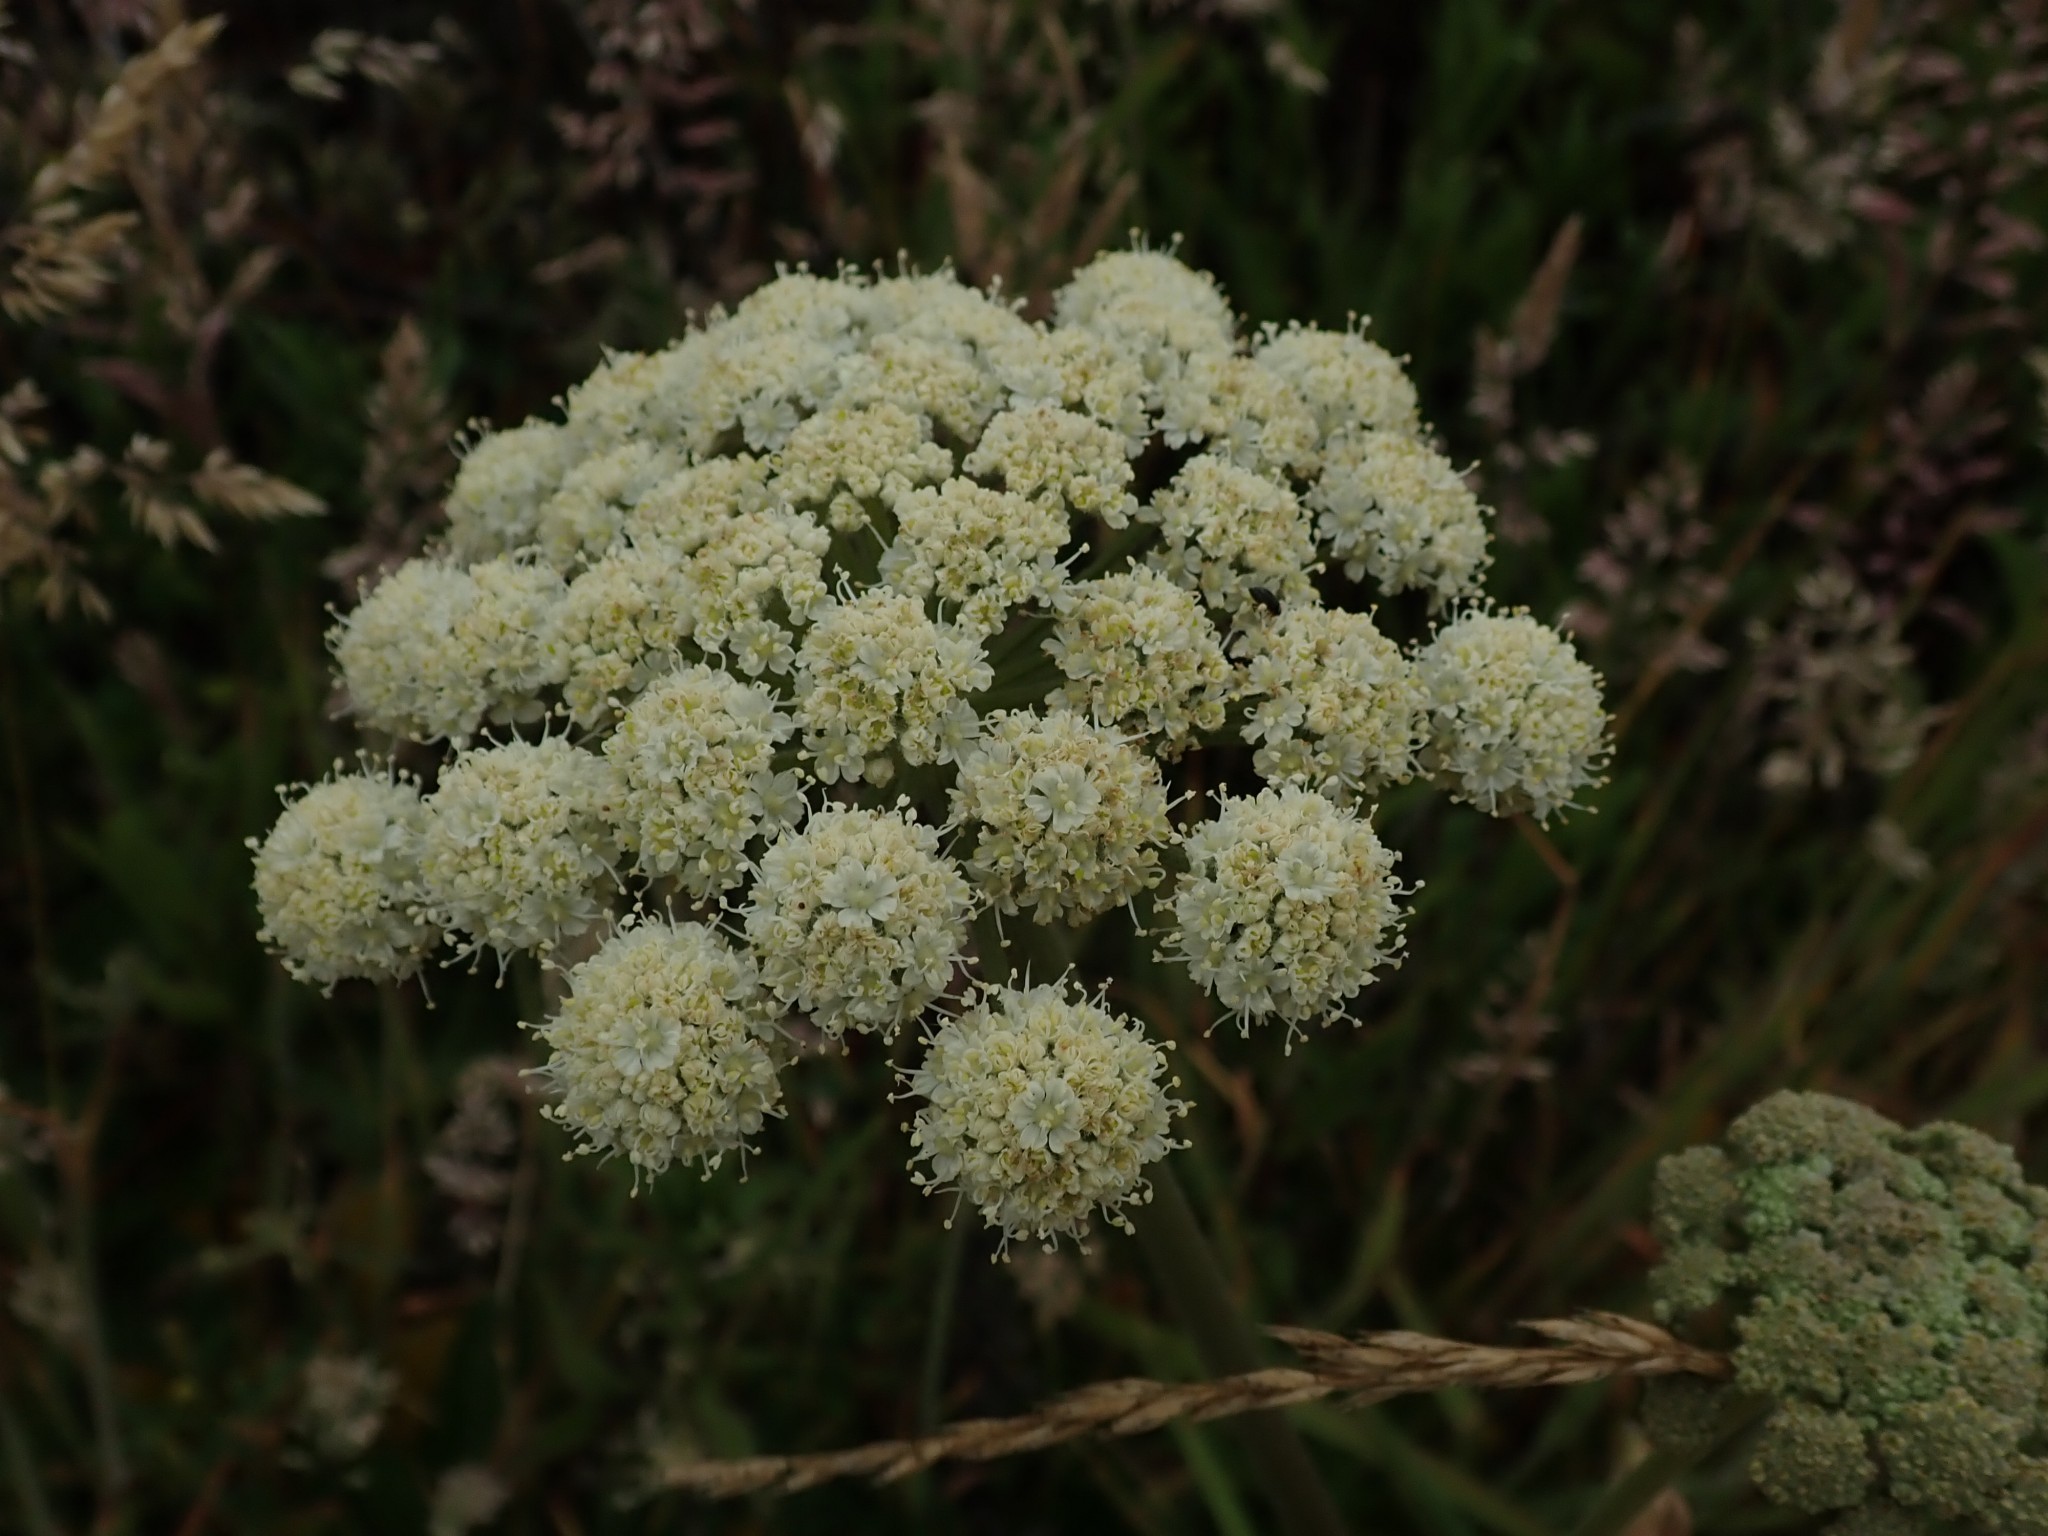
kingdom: Plantae
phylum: Tracheophyta
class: Magnoliopsida
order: Apiales
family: Apiaceae
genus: Angelica
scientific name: Angelica hendersonii
